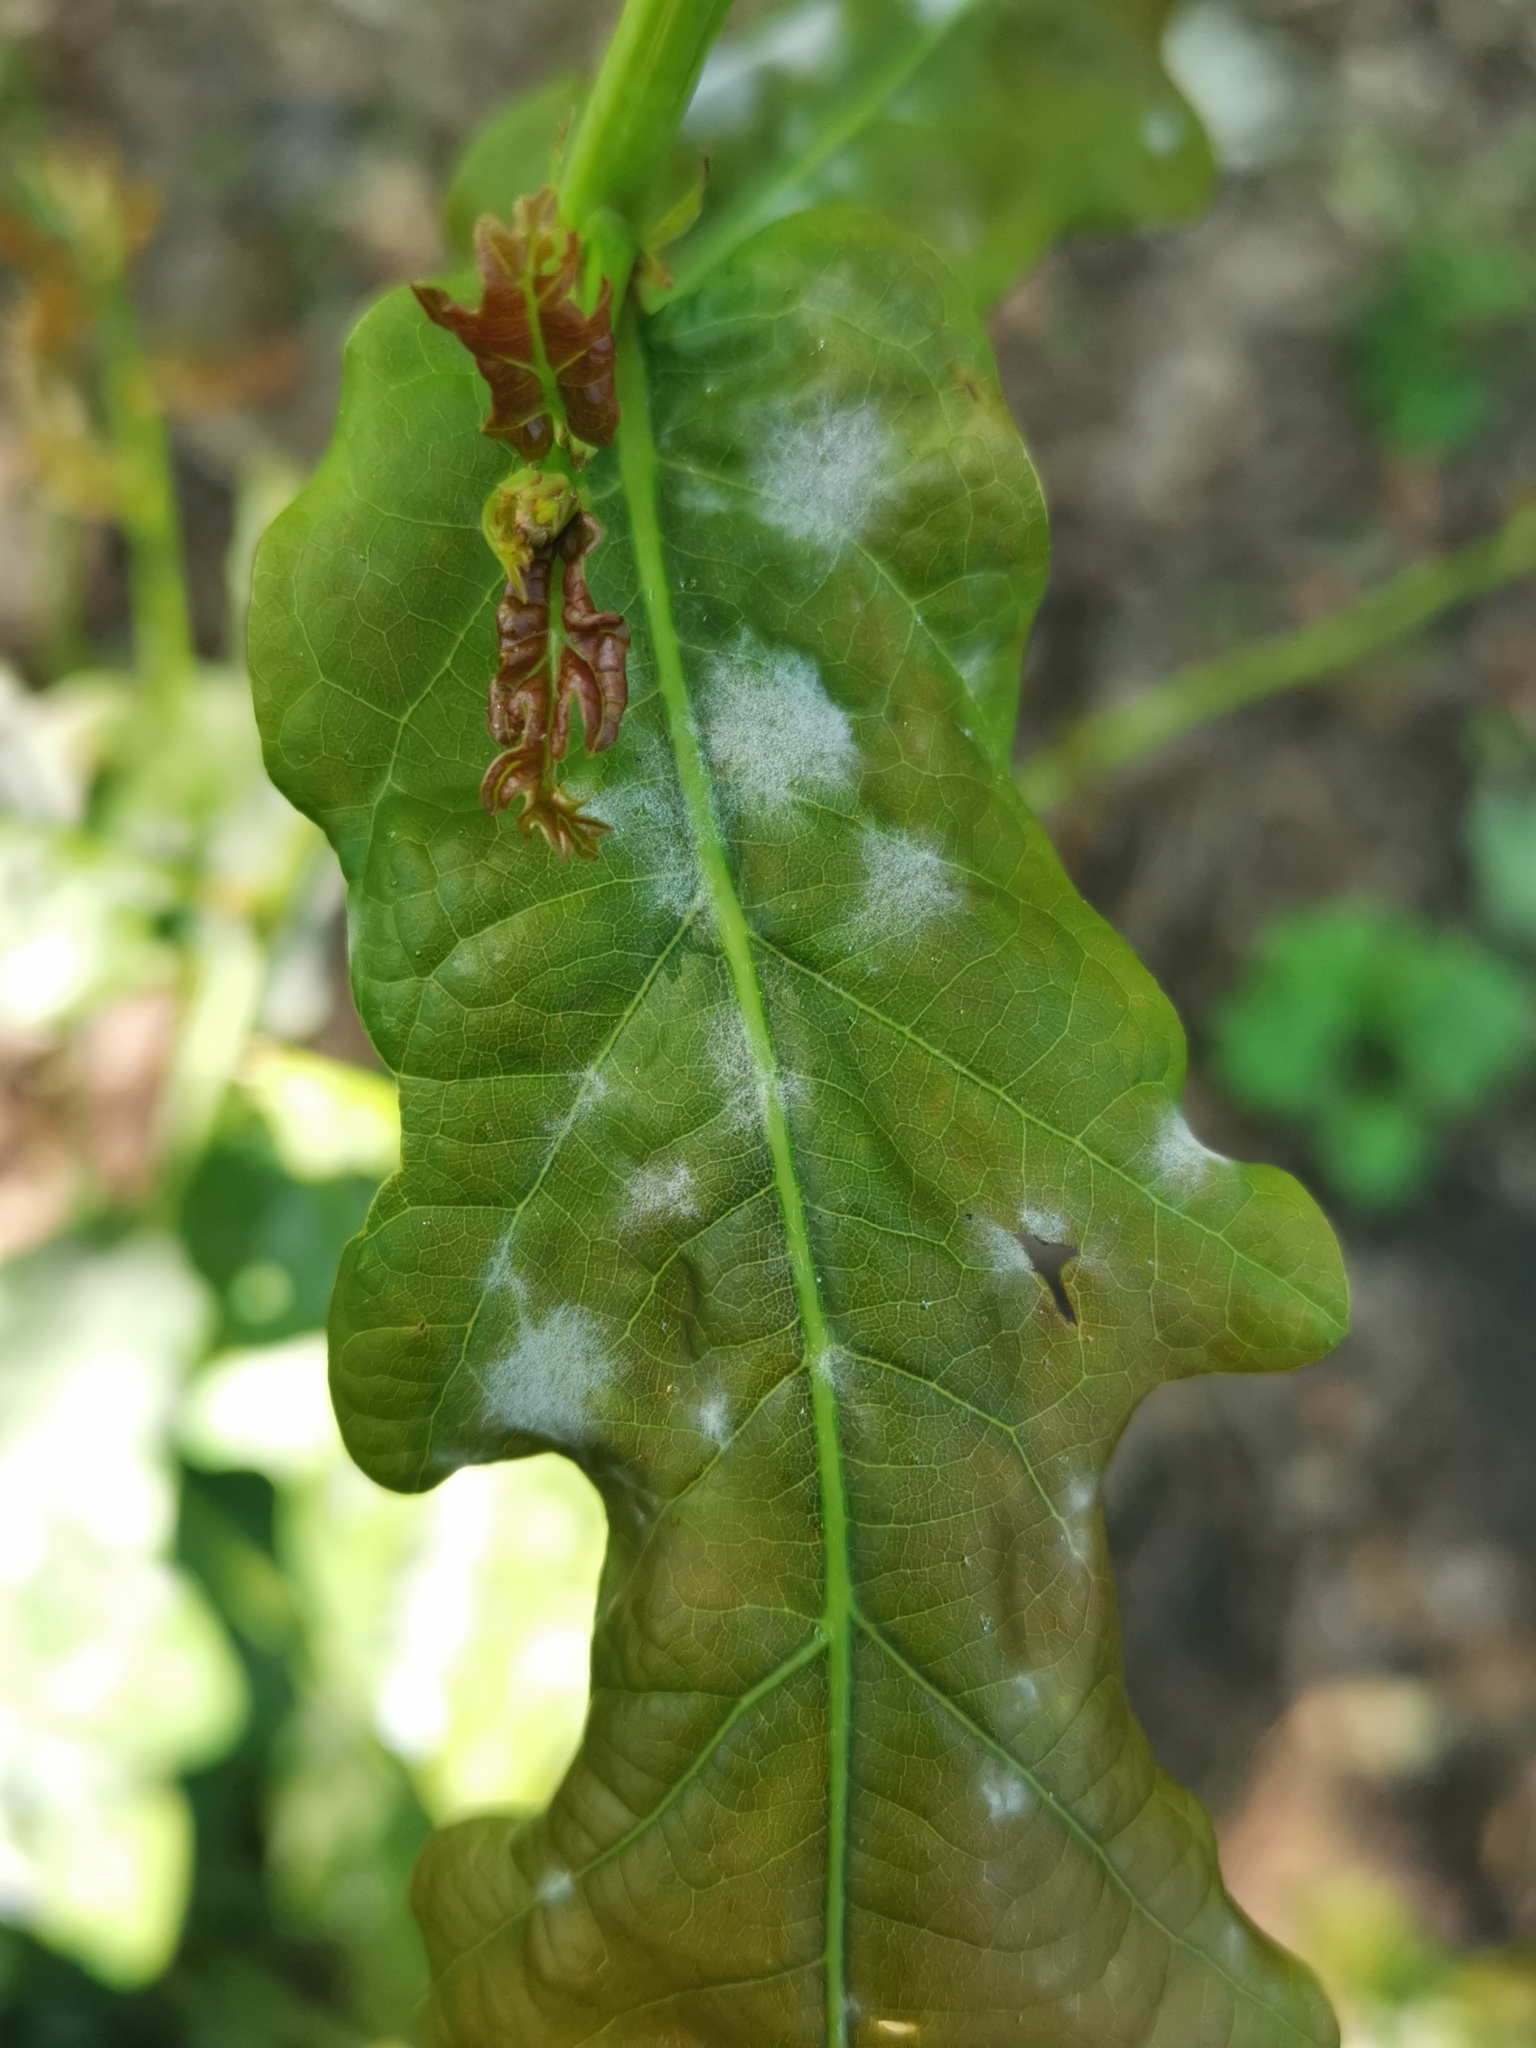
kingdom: Fungi
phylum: Ascomycota
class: Leotiomycetes
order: Helotiales
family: Erysiphaceae
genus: Erysiphe
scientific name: Erysiphe
